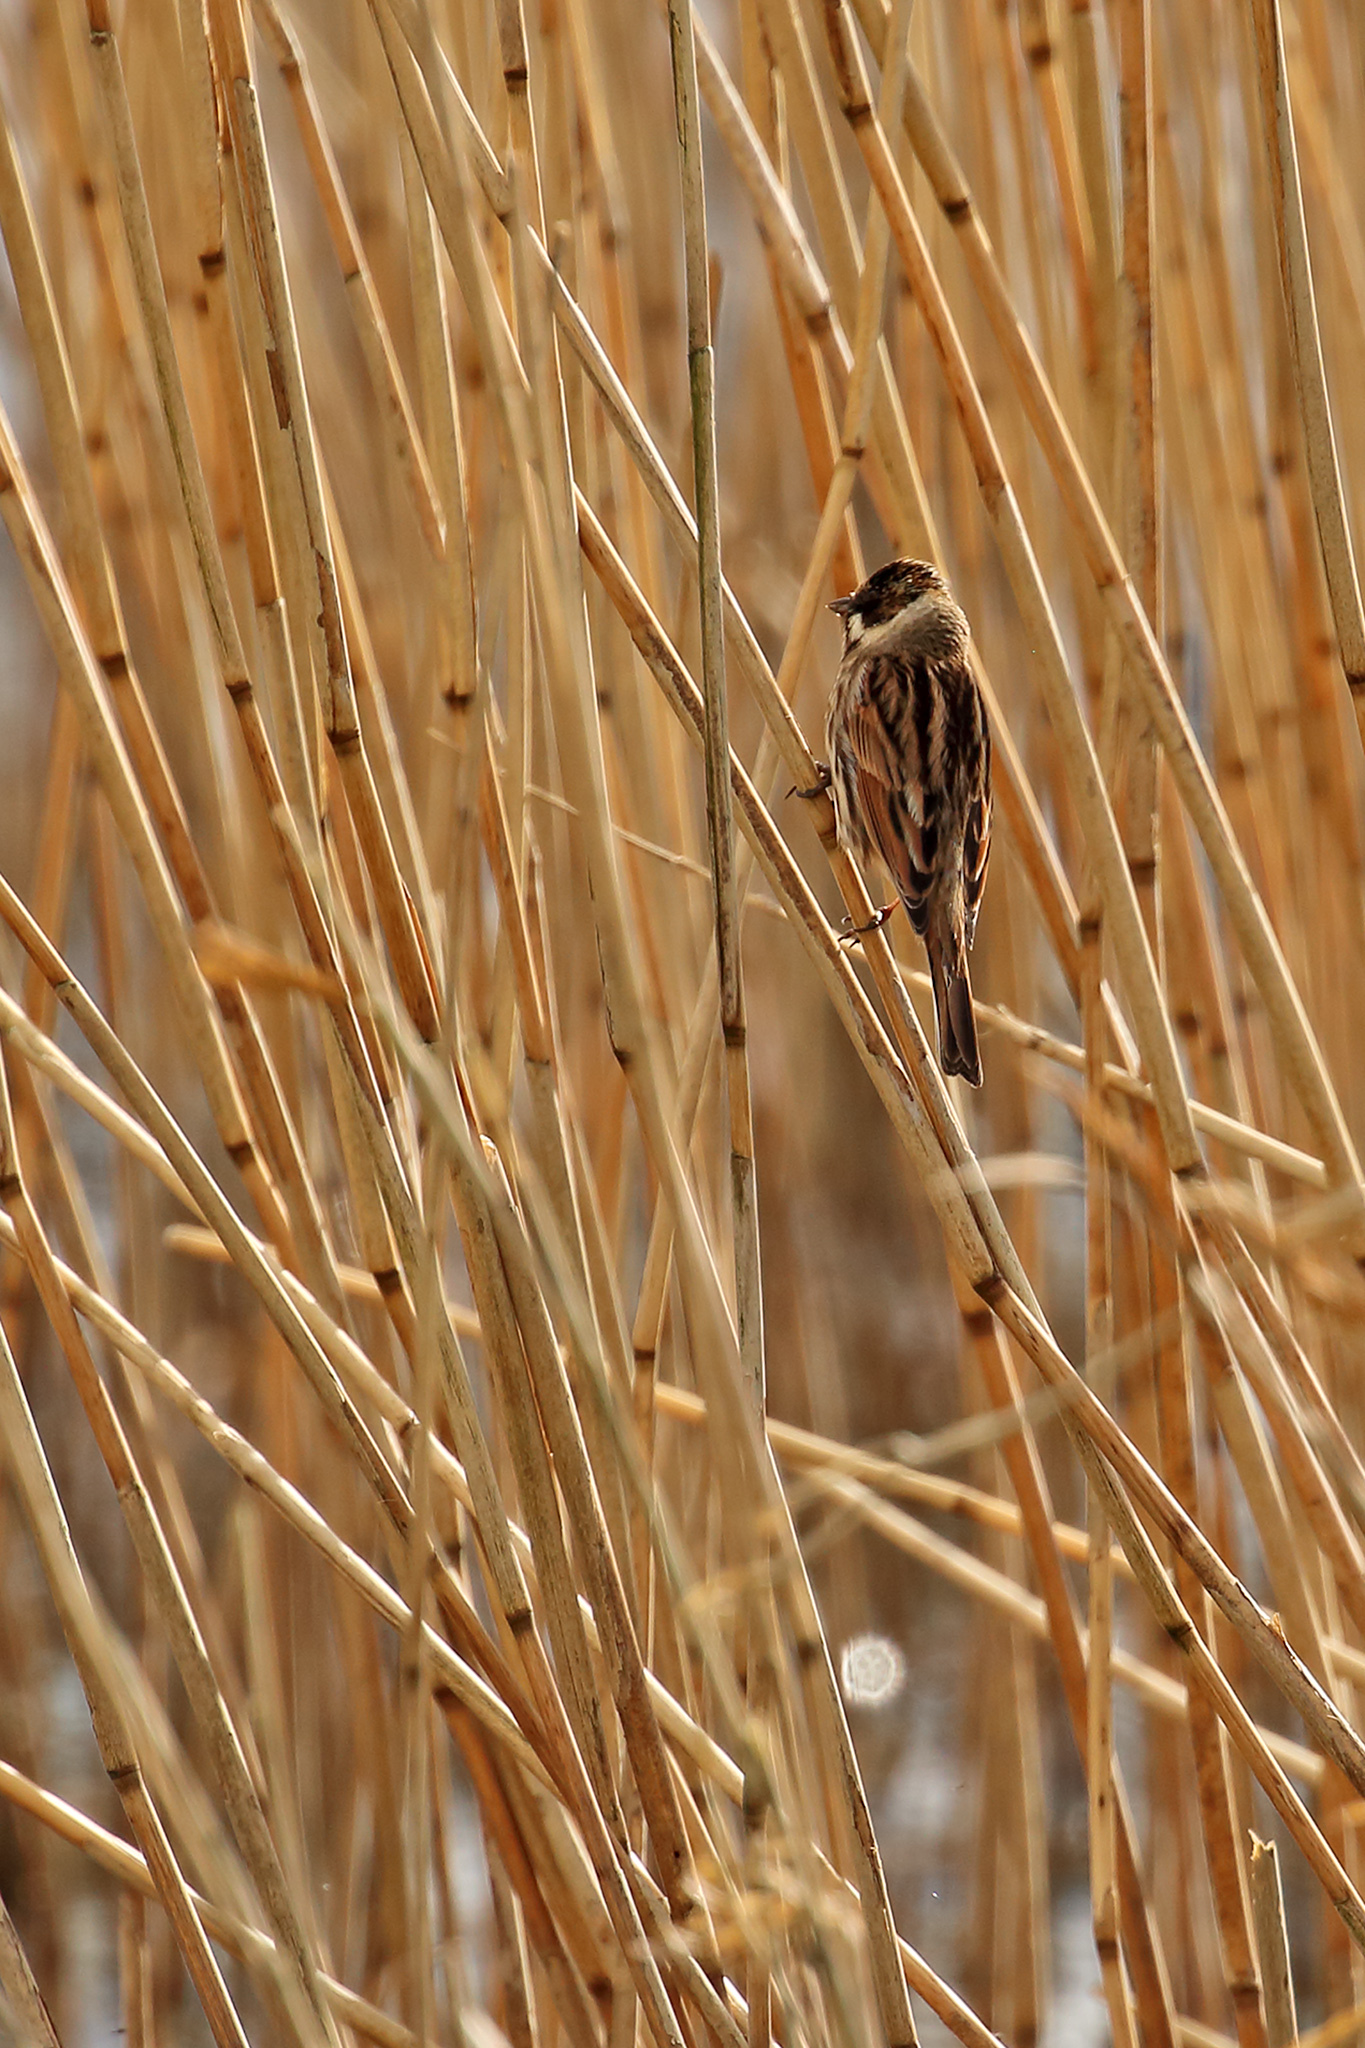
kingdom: Animalia
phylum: Chordata
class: Aves
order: Passeriformes
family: Emberizidae
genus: Emberiza
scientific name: Emberiza schoeniclus
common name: Reed bunting
